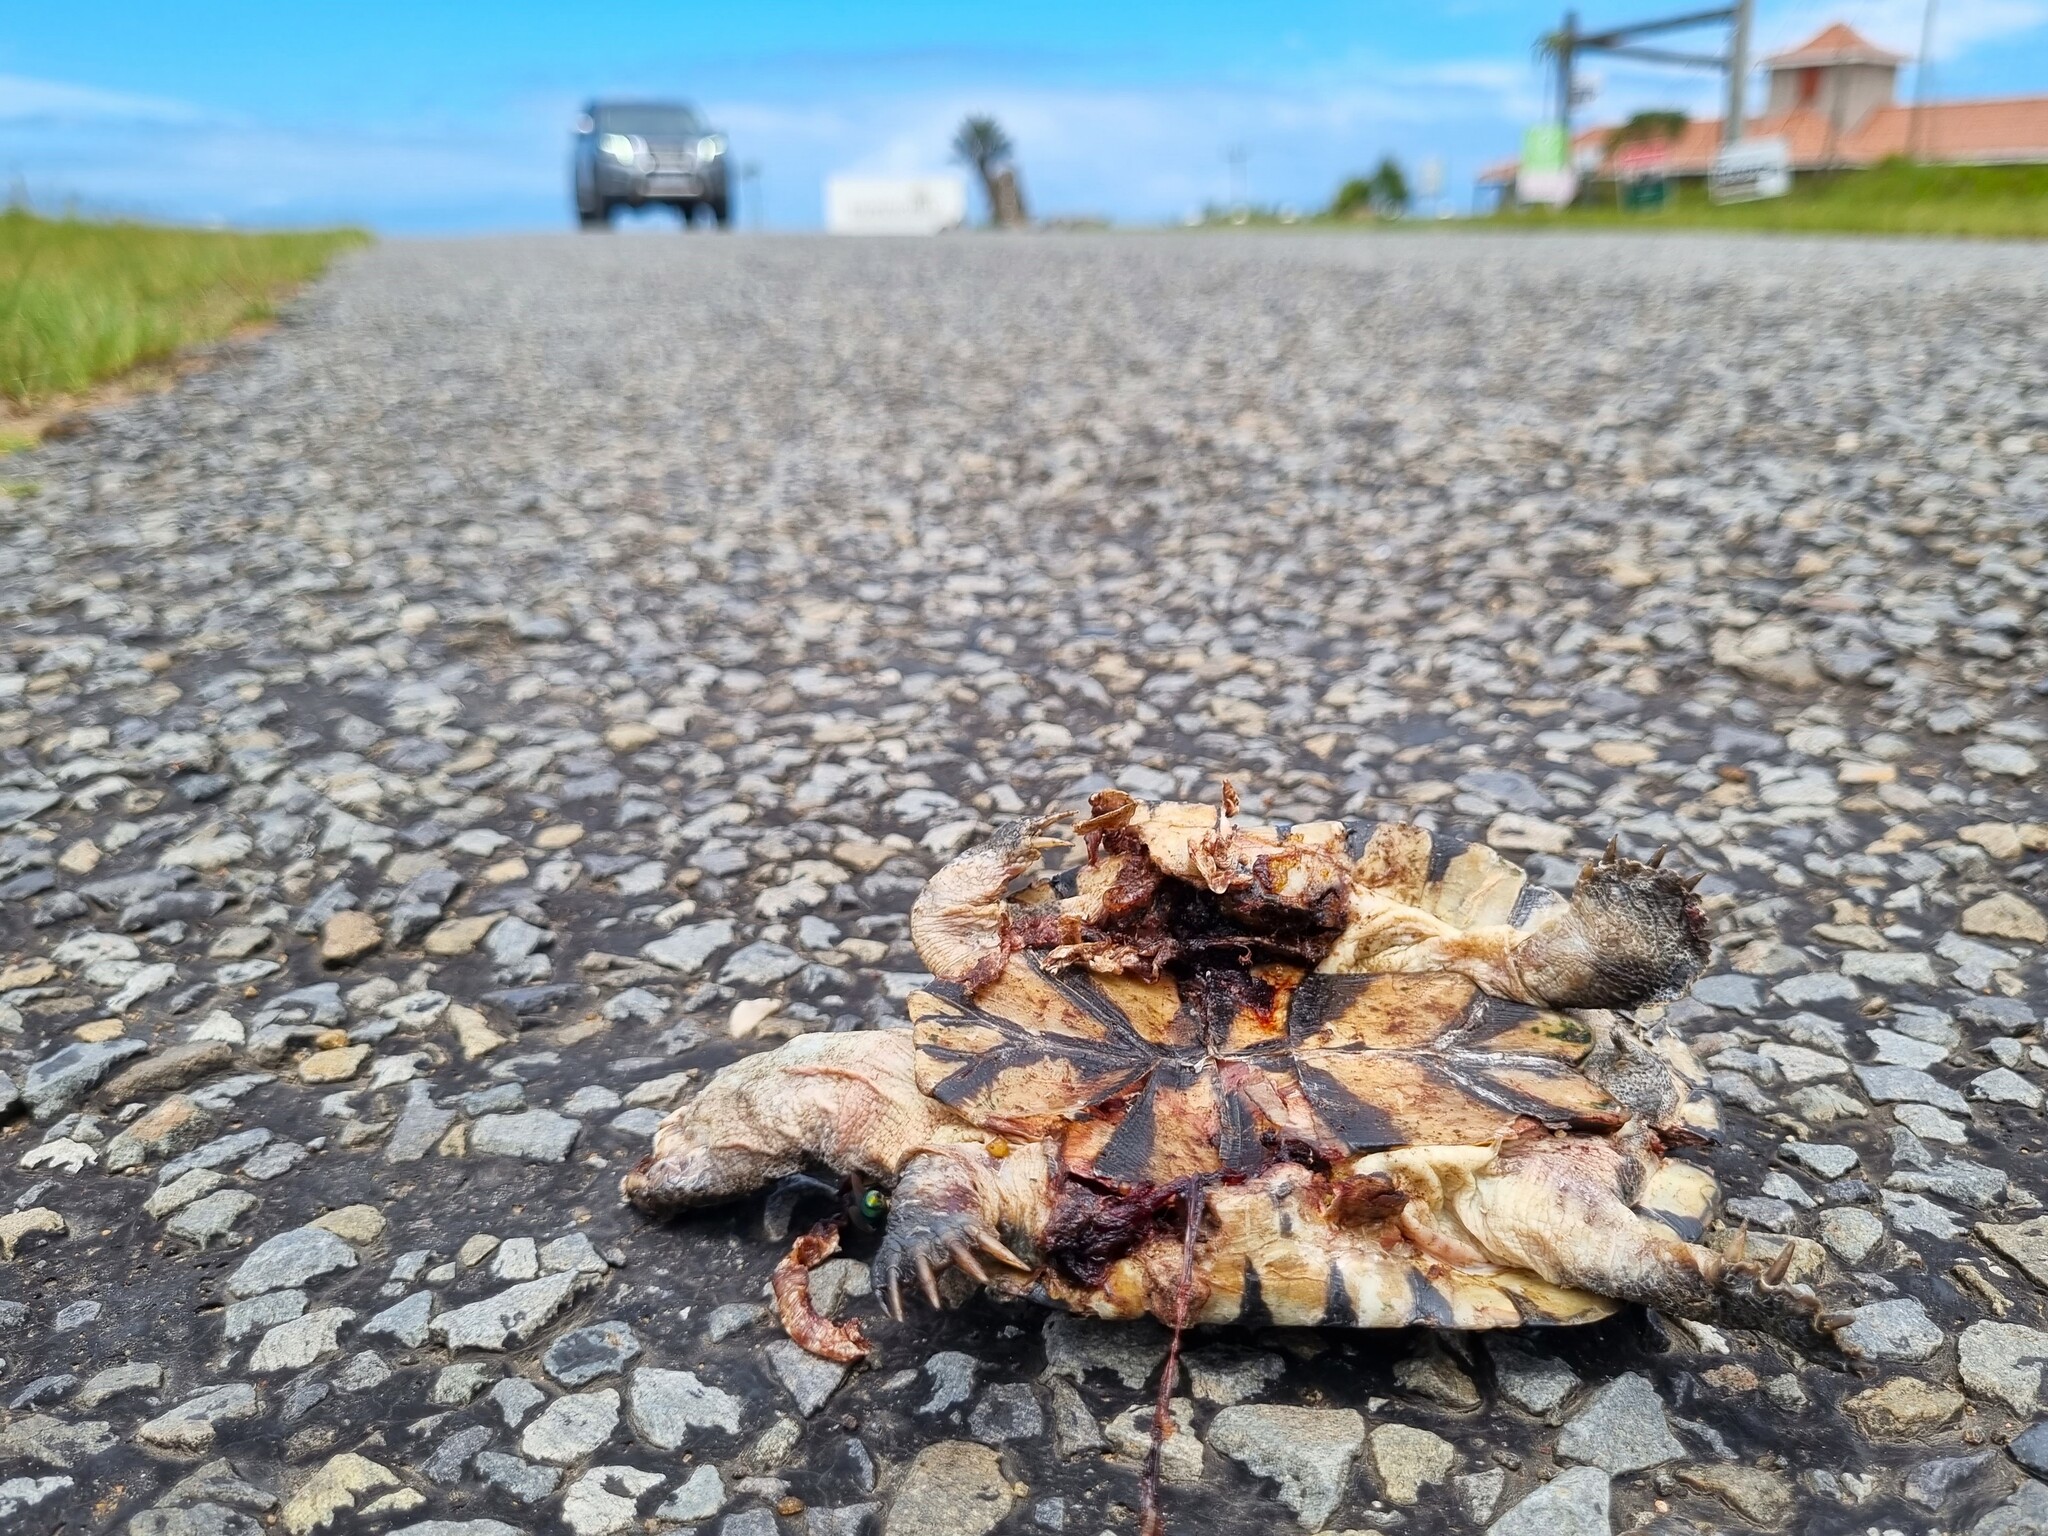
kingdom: Animalia
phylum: Chordata
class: Testudines
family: Pelomedusidae
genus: Pelomedusa
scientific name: Pelomedusa galeata
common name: South african helmeted terrapin
